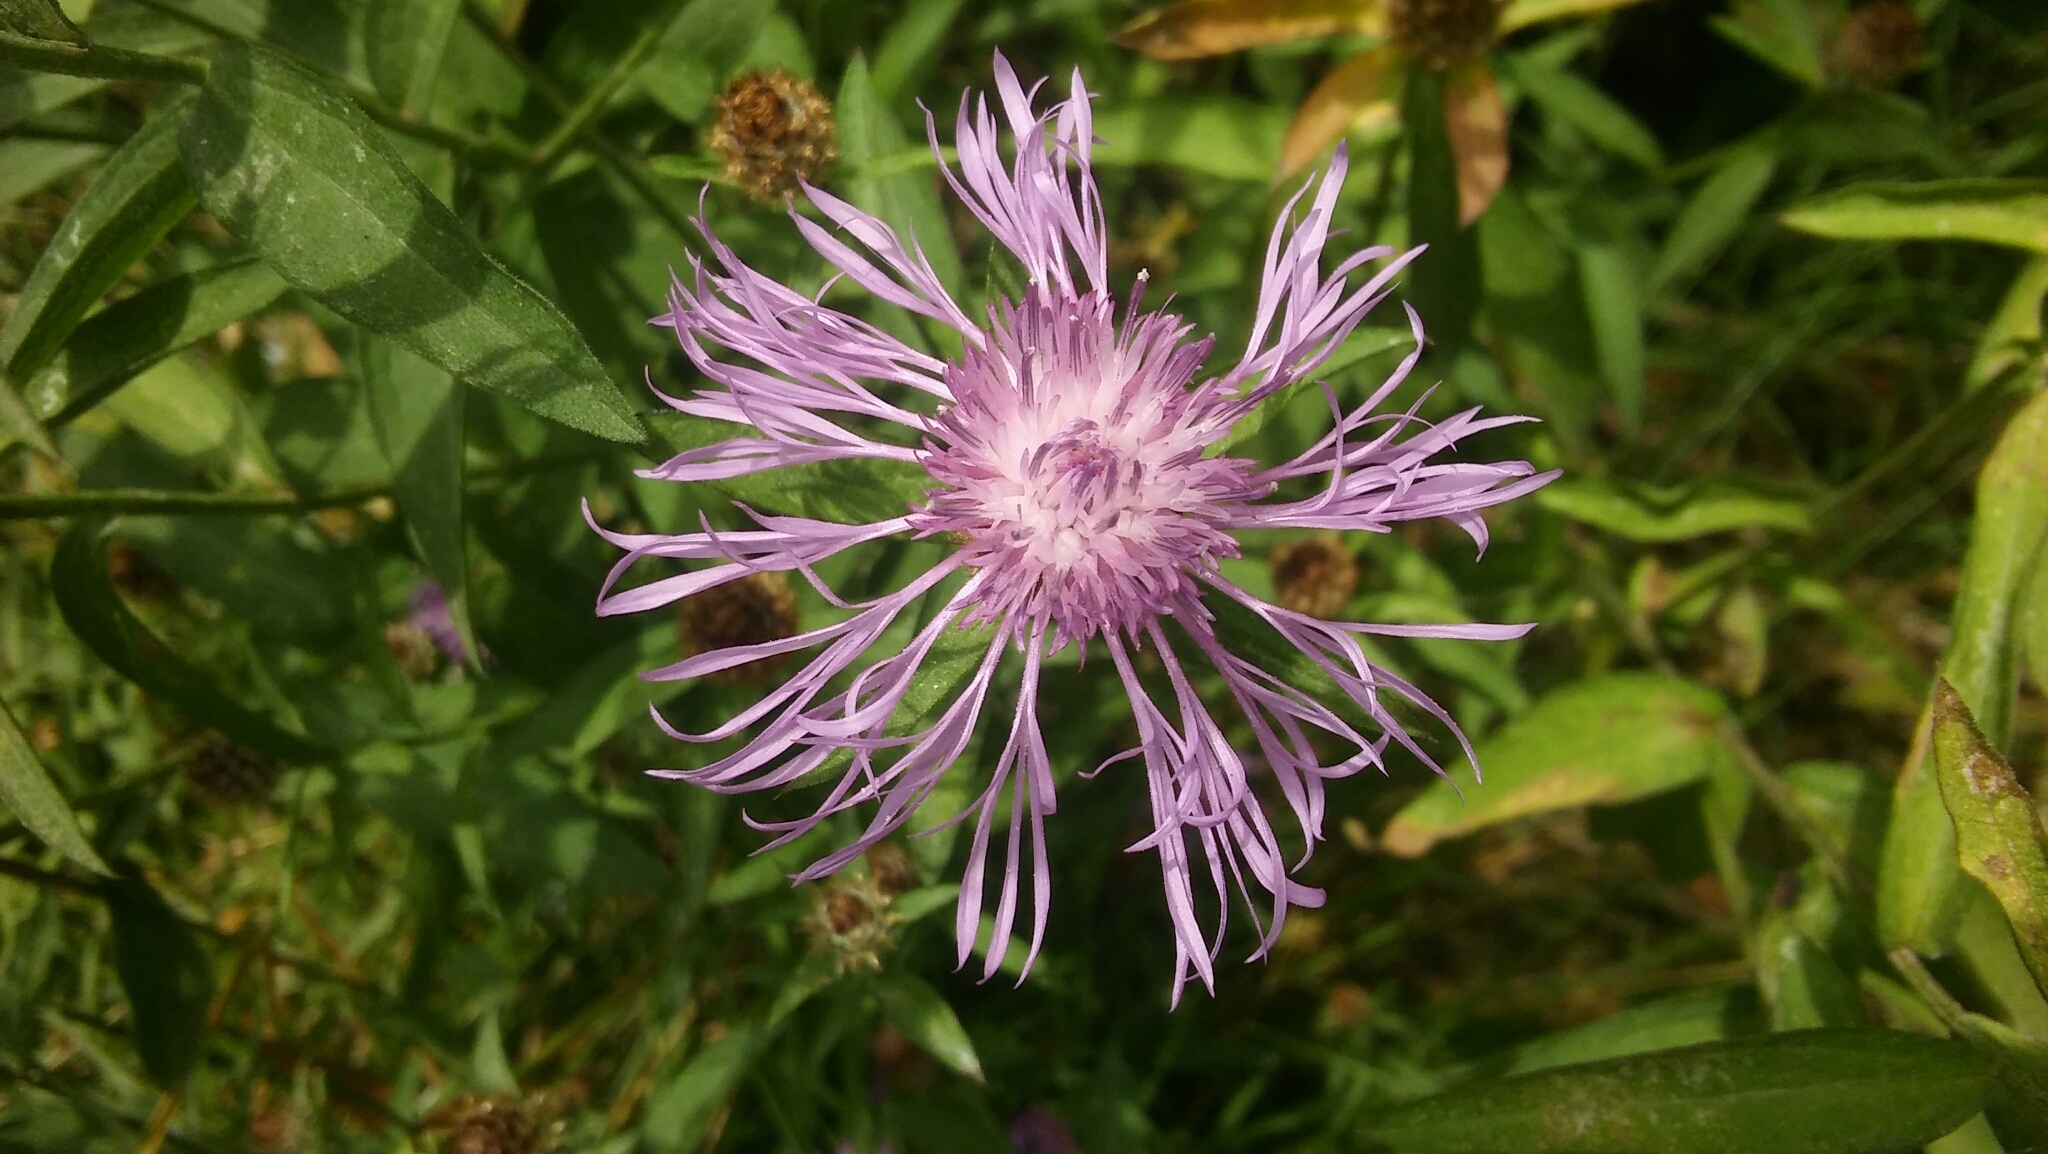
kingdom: Plantae
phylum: Tracheophyta
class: Magnoliopsida
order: Asterales
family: Asteraceae
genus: Centaurea
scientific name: Centaurea jacea
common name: Brown knapweed
